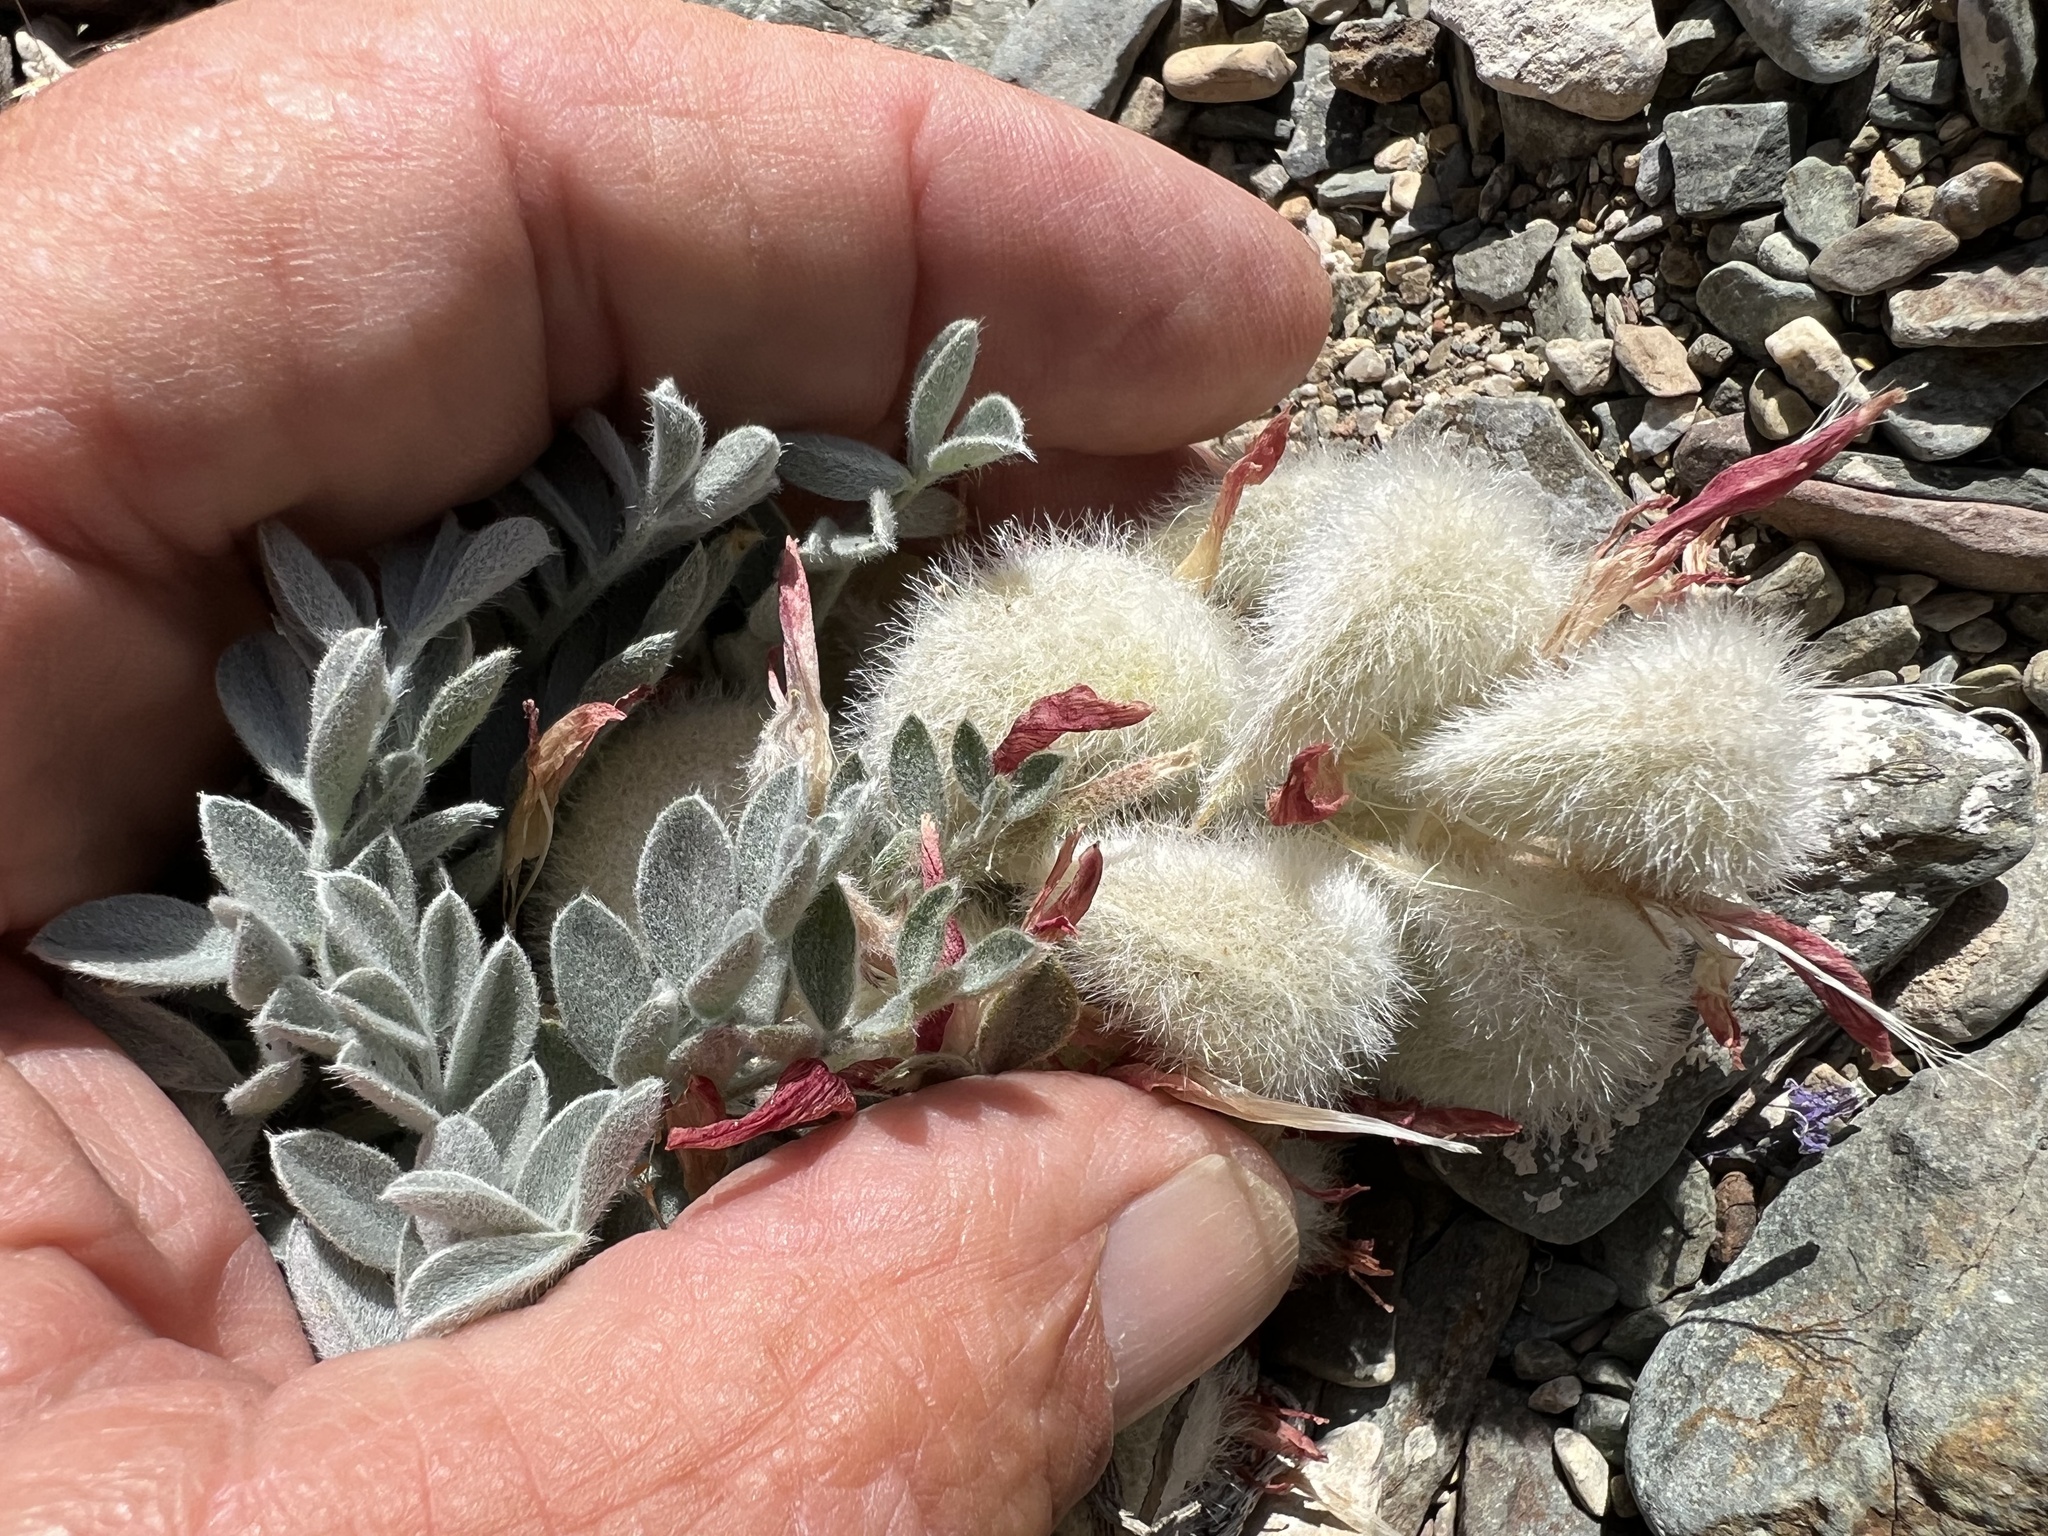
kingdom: Plantae
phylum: Tracheophyta
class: Magnoliopsida
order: Fabales
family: Fabaceae
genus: Astragalus
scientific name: Astragalus coccineus
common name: Scarlet milk-vetch
